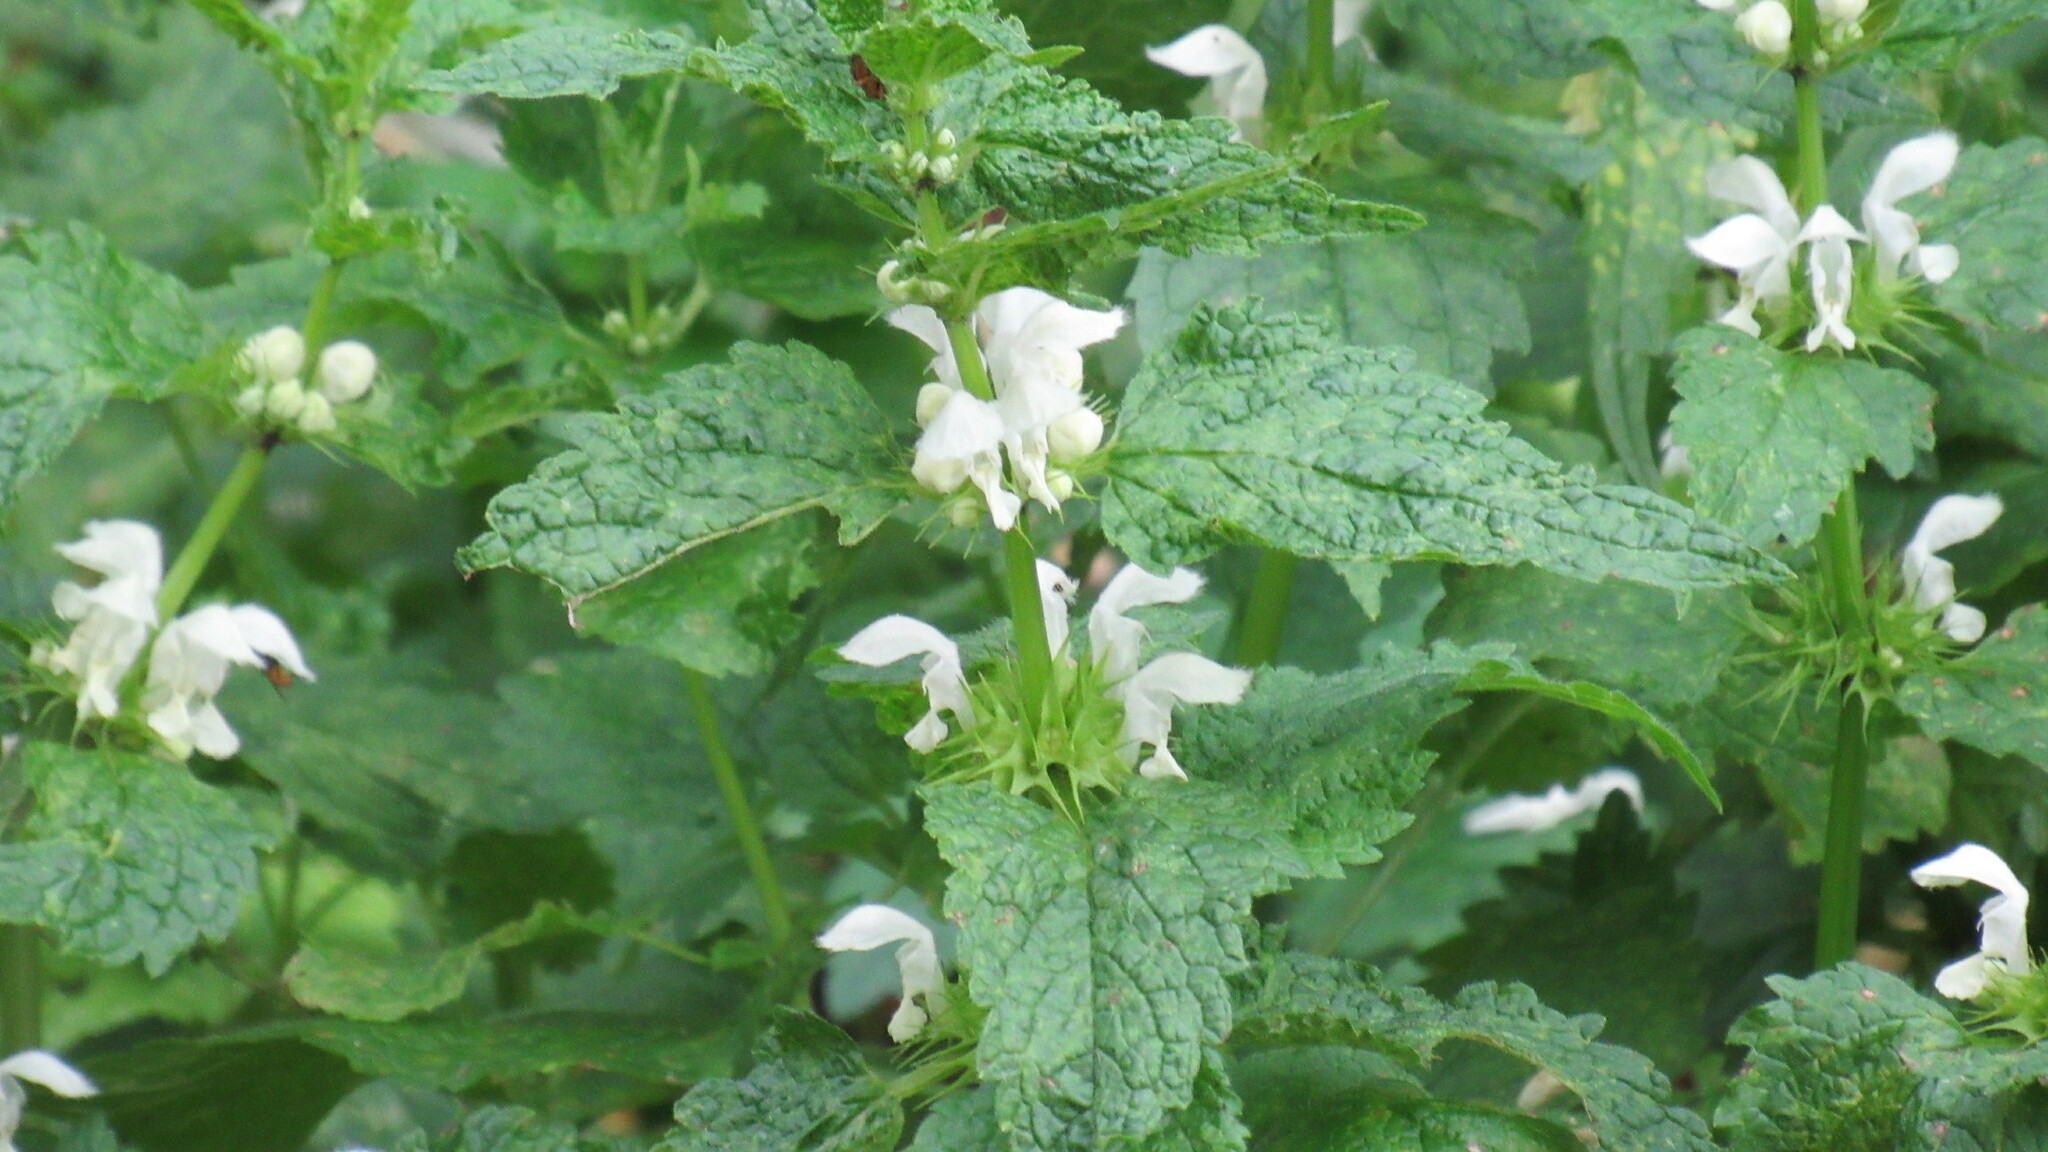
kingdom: Plantae
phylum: Tracheophyta
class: Magnoliopsida
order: Lamiales
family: Lamiaceae
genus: Lamium
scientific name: Lamium album
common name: White dead-nettle
